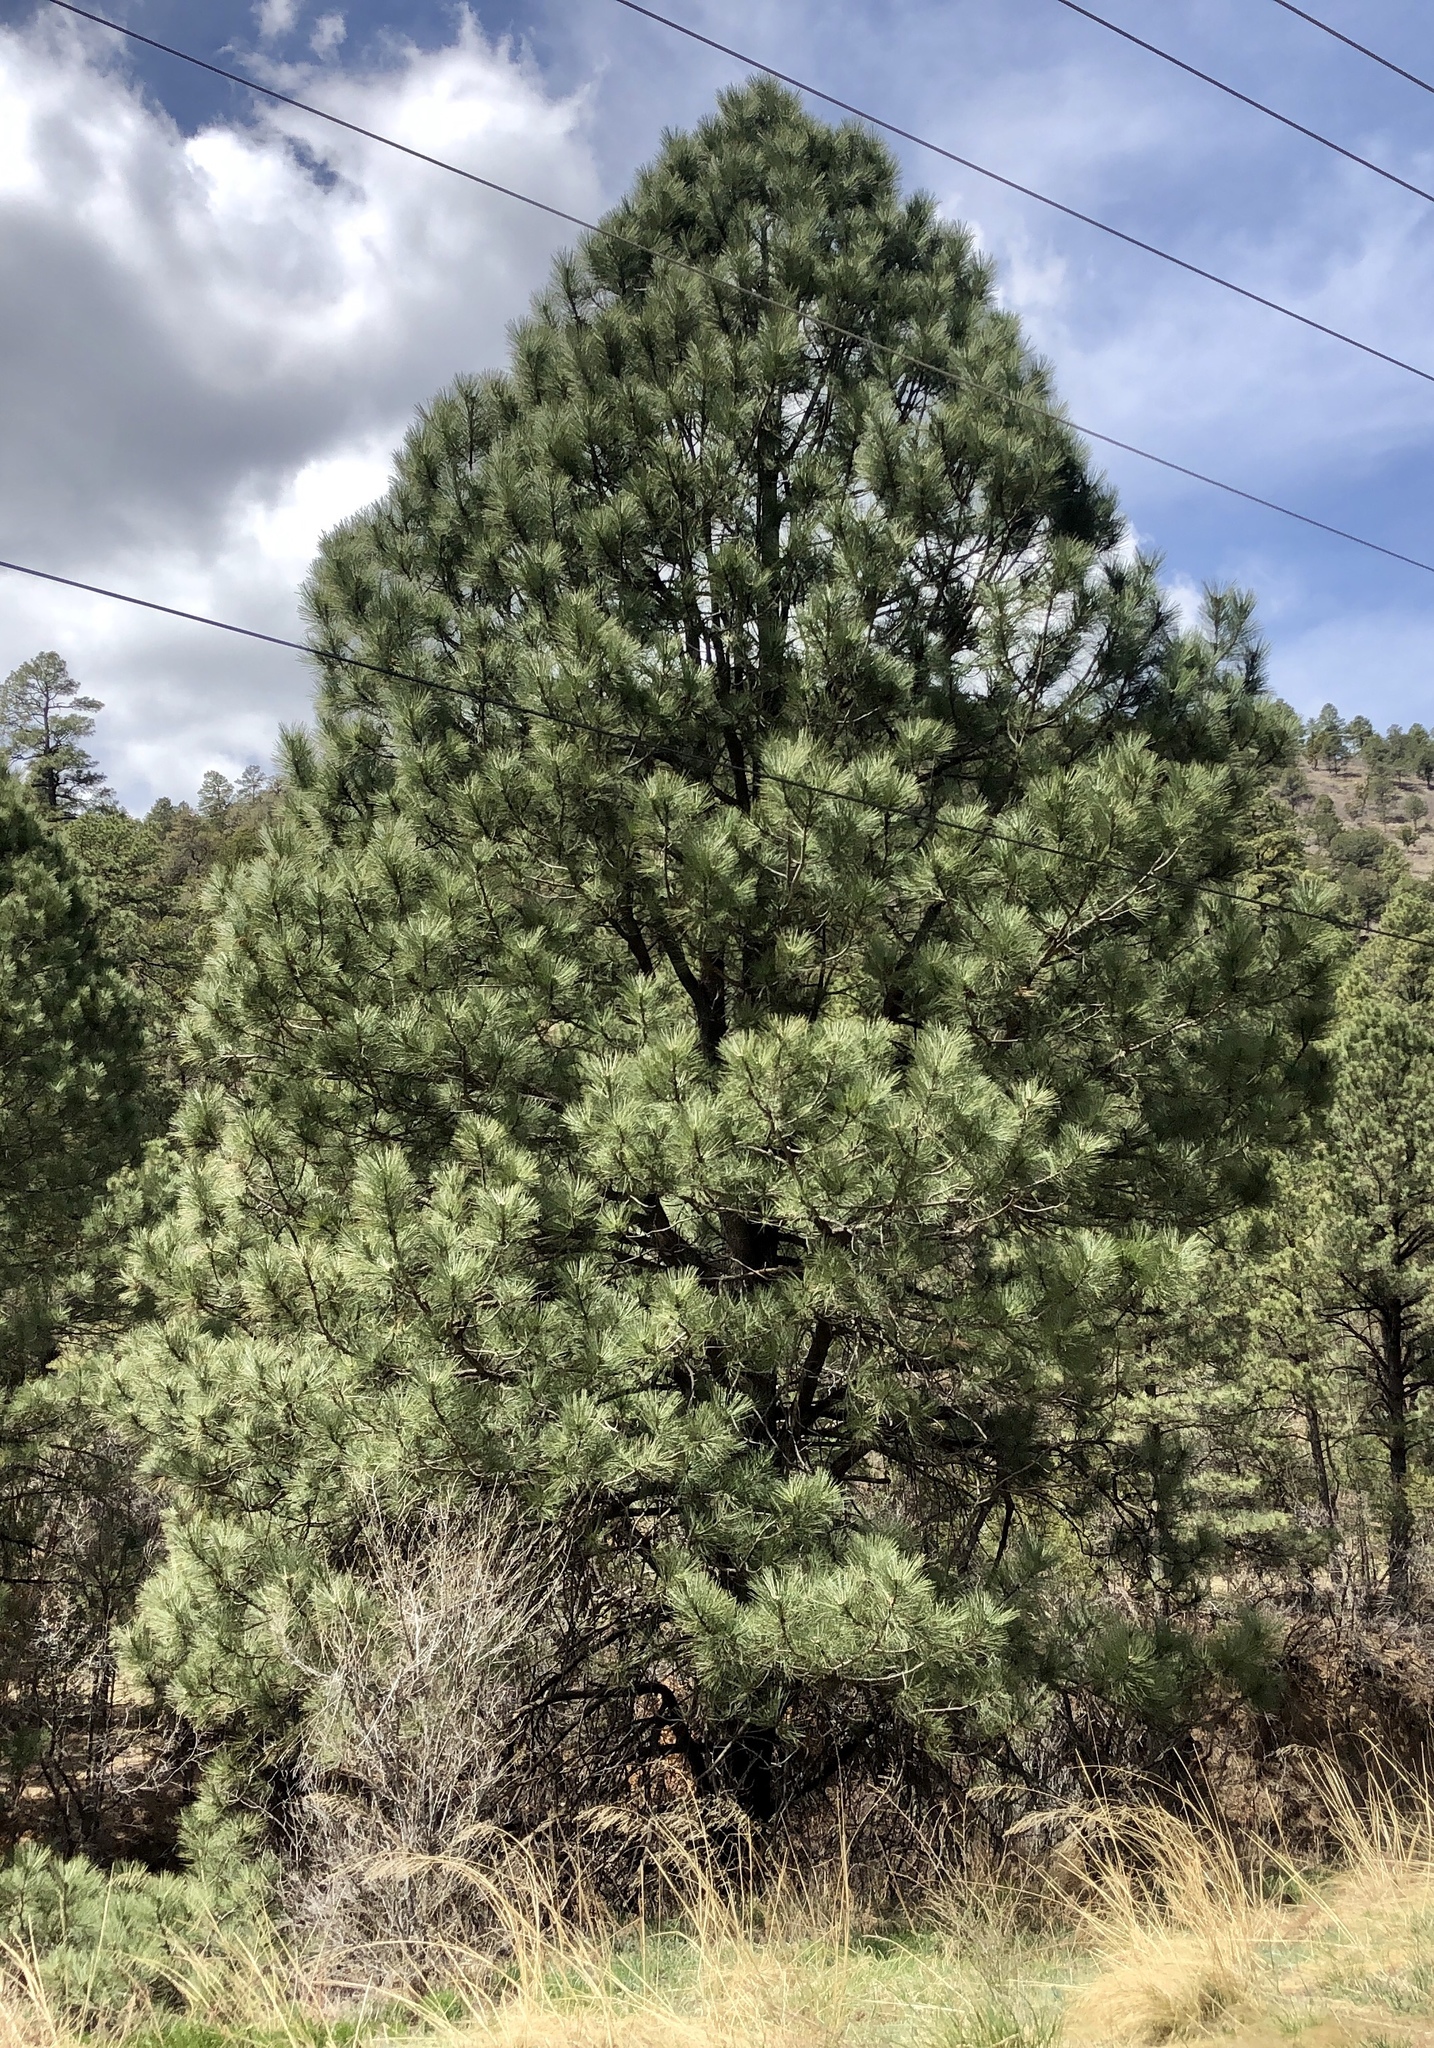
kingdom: Plantae
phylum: Tracheophyta
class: Pinopsida
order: Pinales
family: Pinaceae
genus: Pinus
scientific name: Pinus ponderosa
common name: Western yellow-pine
